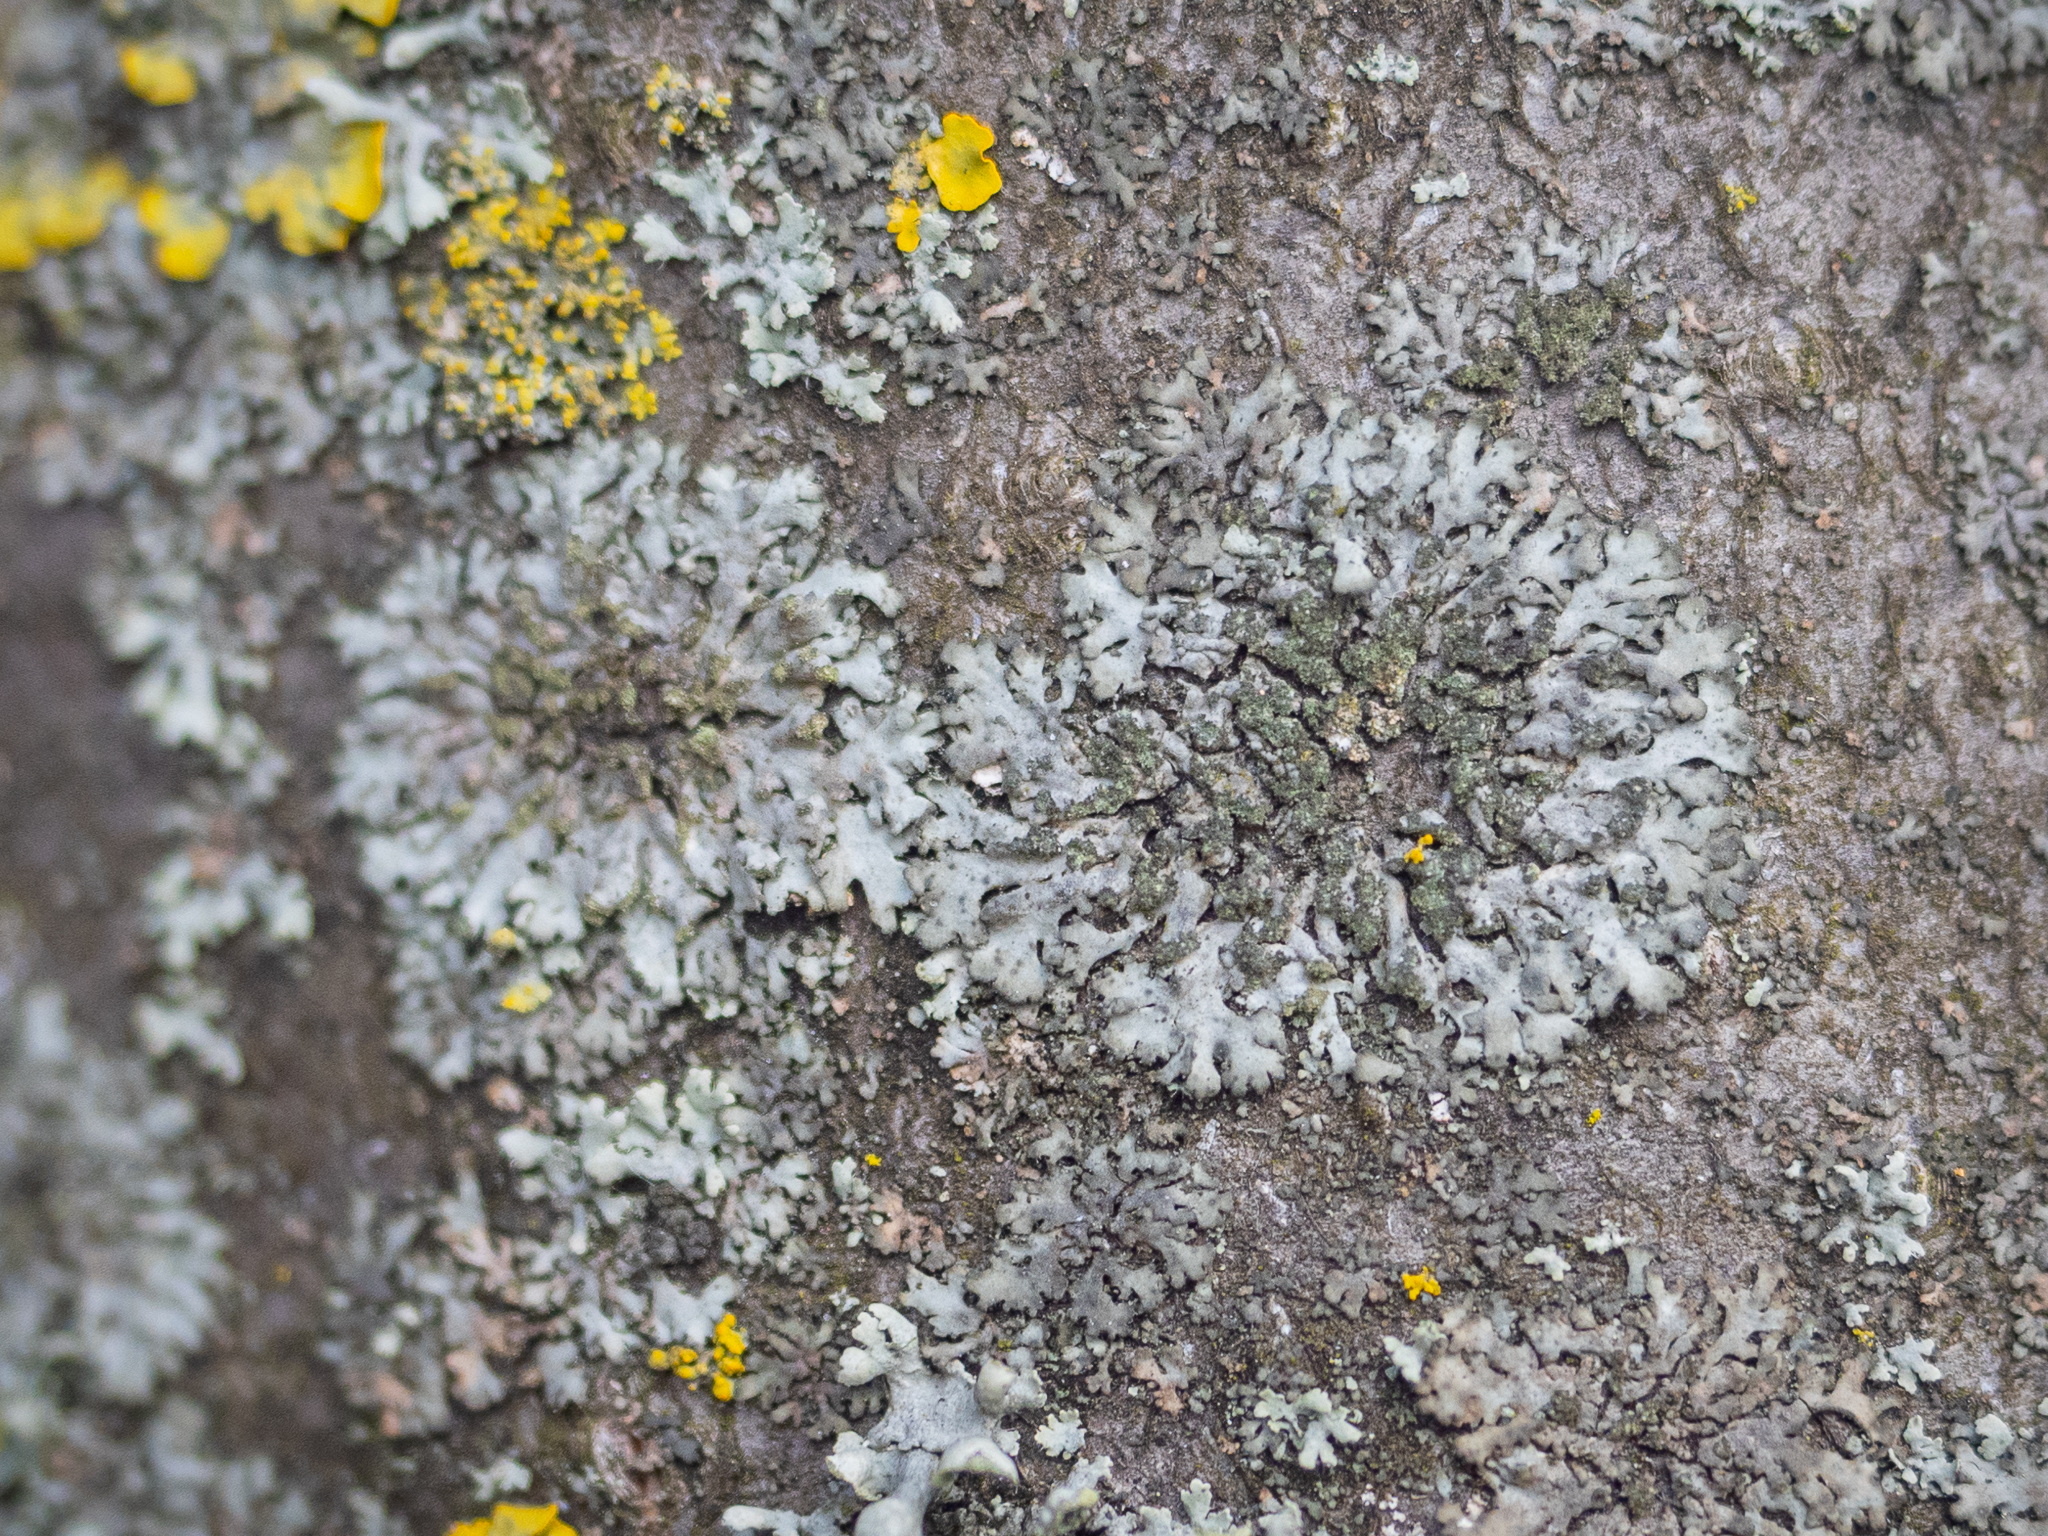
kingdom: Fungi
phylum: Ascomycota
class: Lecanoromycetes
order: Caliciales
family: Physciaceae
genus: Phaeophyscia
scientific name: Phaeophyscia orbicularis
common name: Mealy shadow lichen
